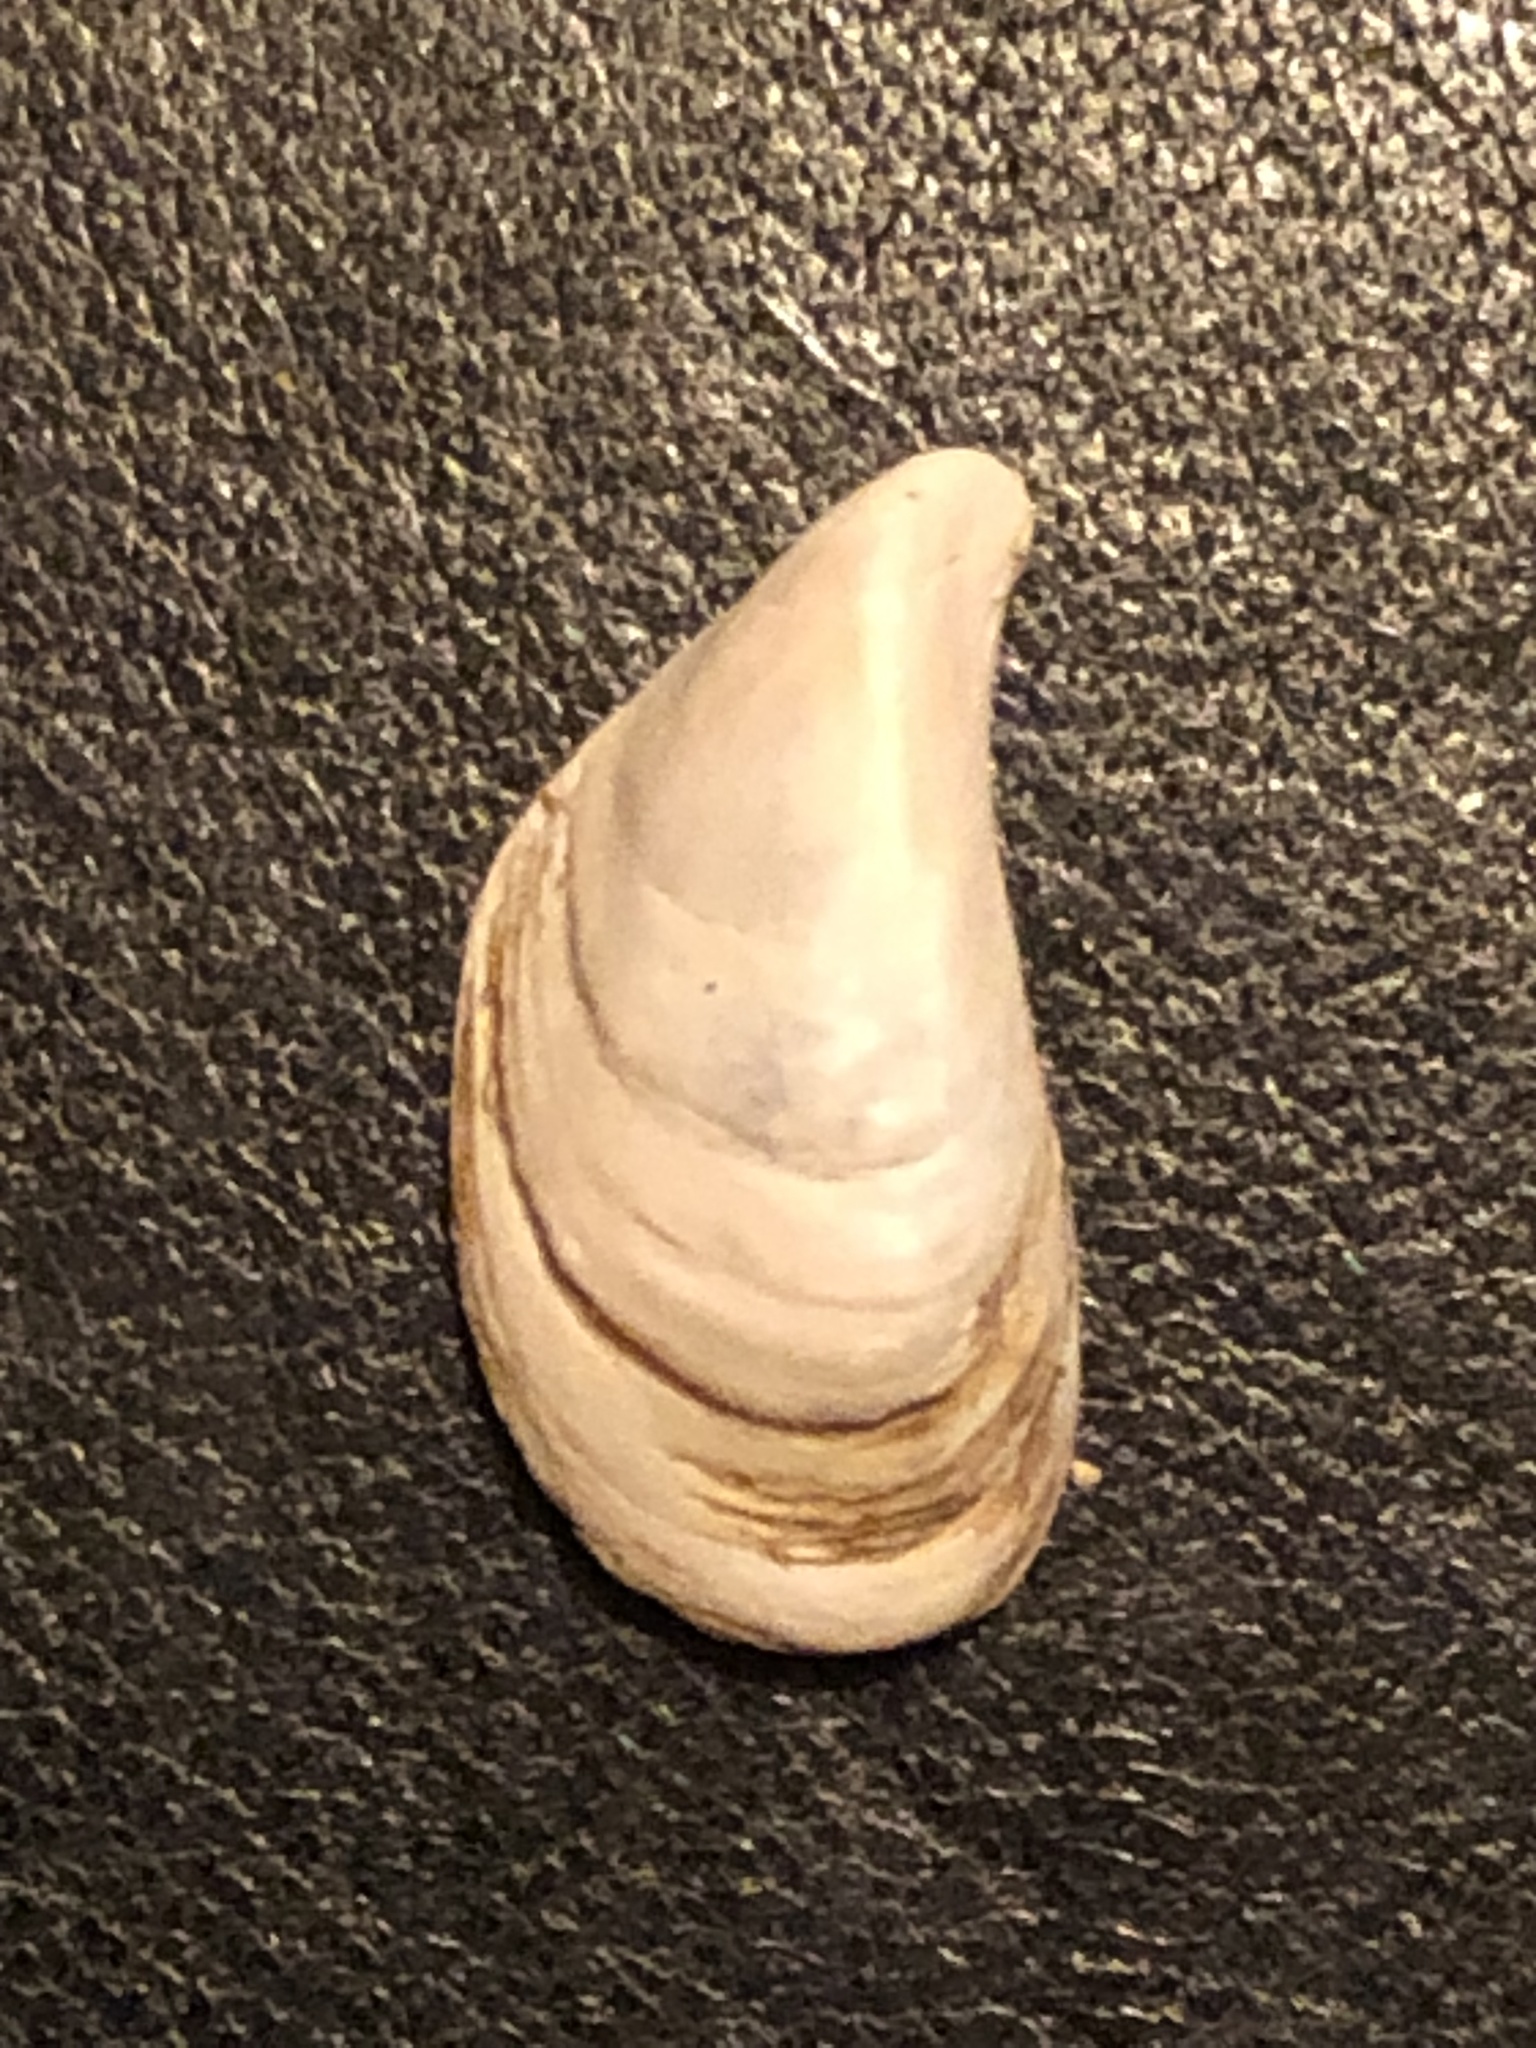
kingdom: Animalia
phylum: Mollusca
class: Bivalvia
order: Myida
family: Dreissenidae
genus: Dreissena
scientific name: Dreissena bugensis
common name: Quagga mussel
